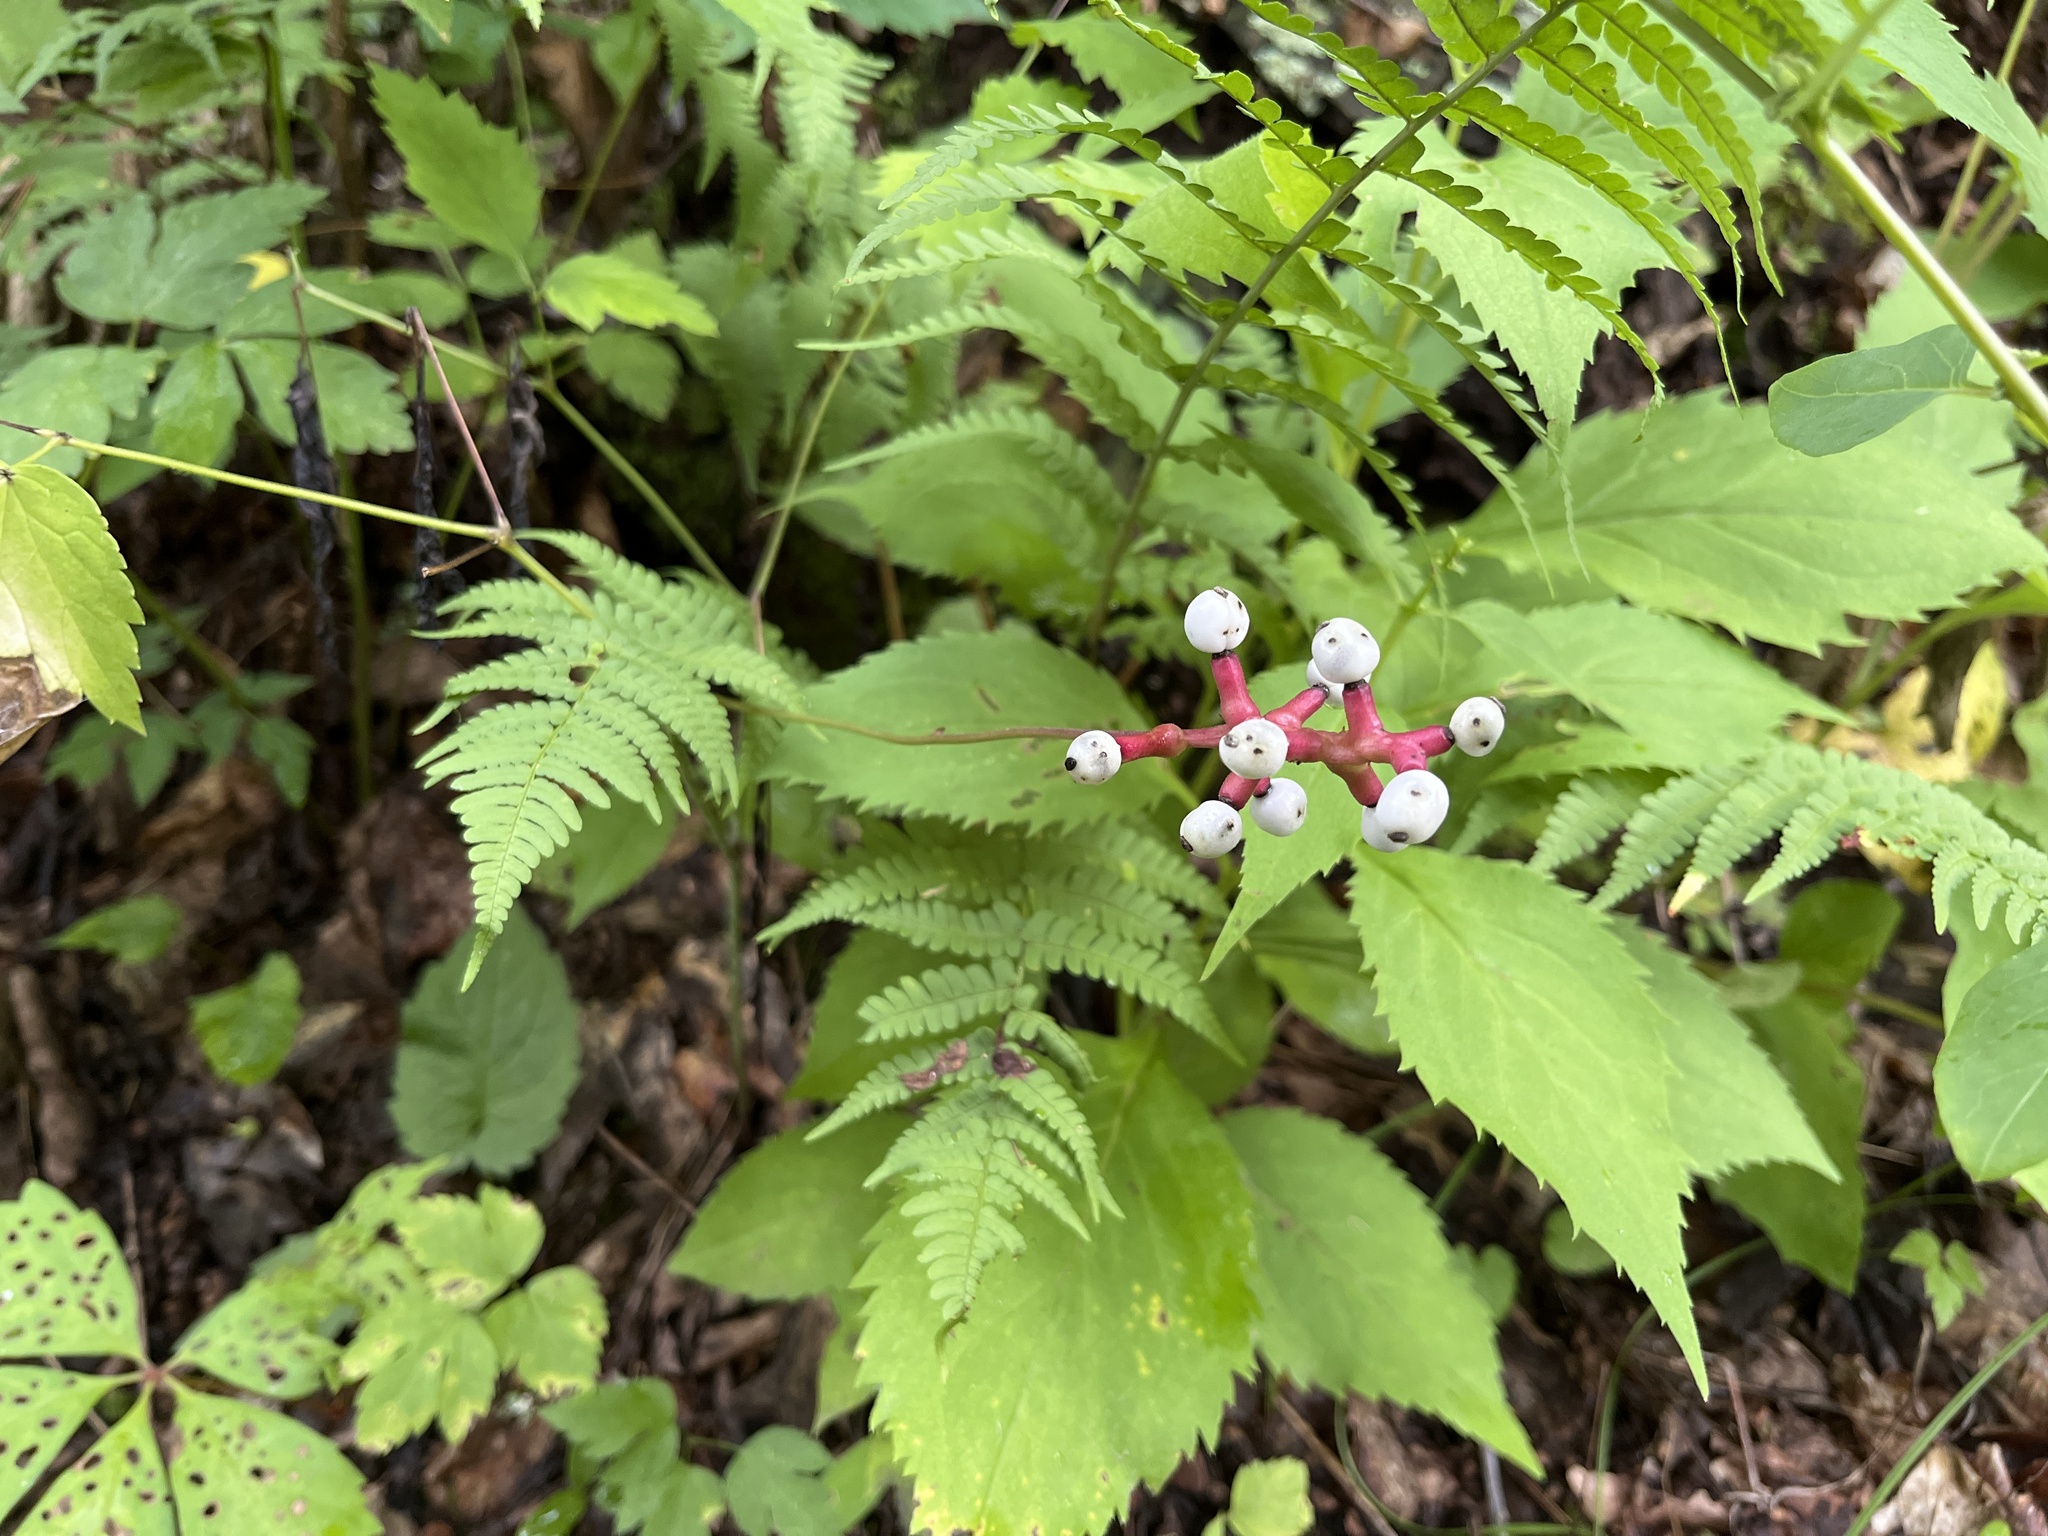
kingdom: Plantae
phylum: Tracheophyta
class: Magnoliopsida
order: Ranunculales
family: Ranunculaceae
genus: Actaea
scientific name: Actaea pachypoda
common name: Doll's-eyes
